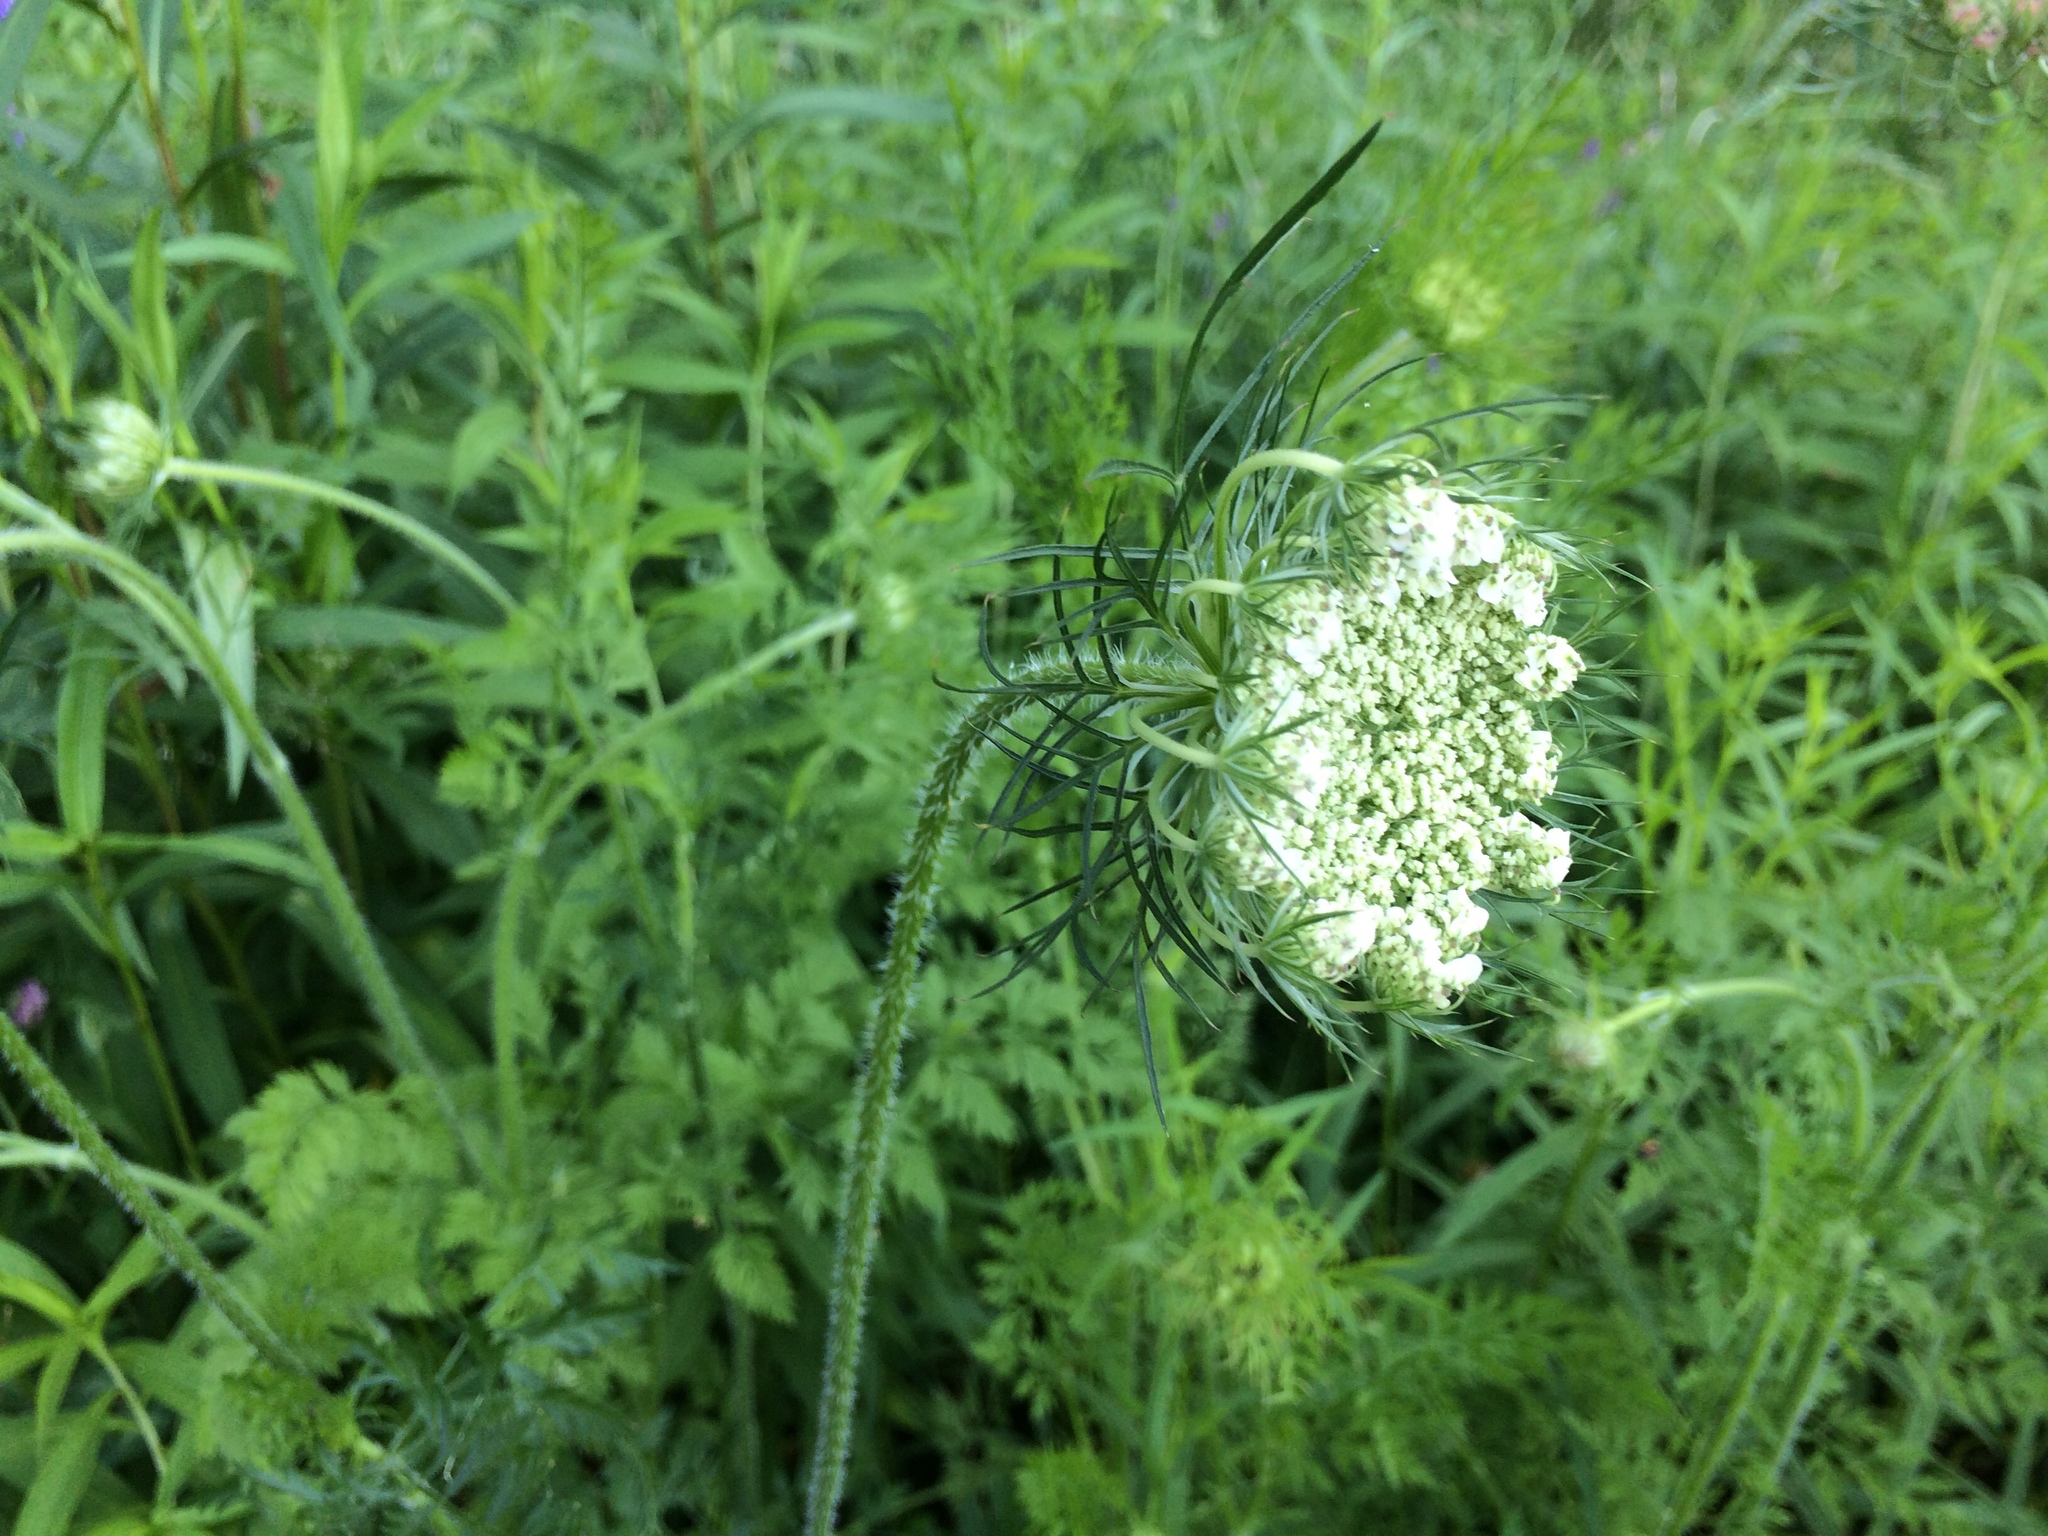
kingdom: Plantae
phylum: Tracheophyta
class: Magnoliopsida
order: Apiales
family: Apiaceae
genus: Daucus
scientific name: Daucus carota
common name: Wild carrot
